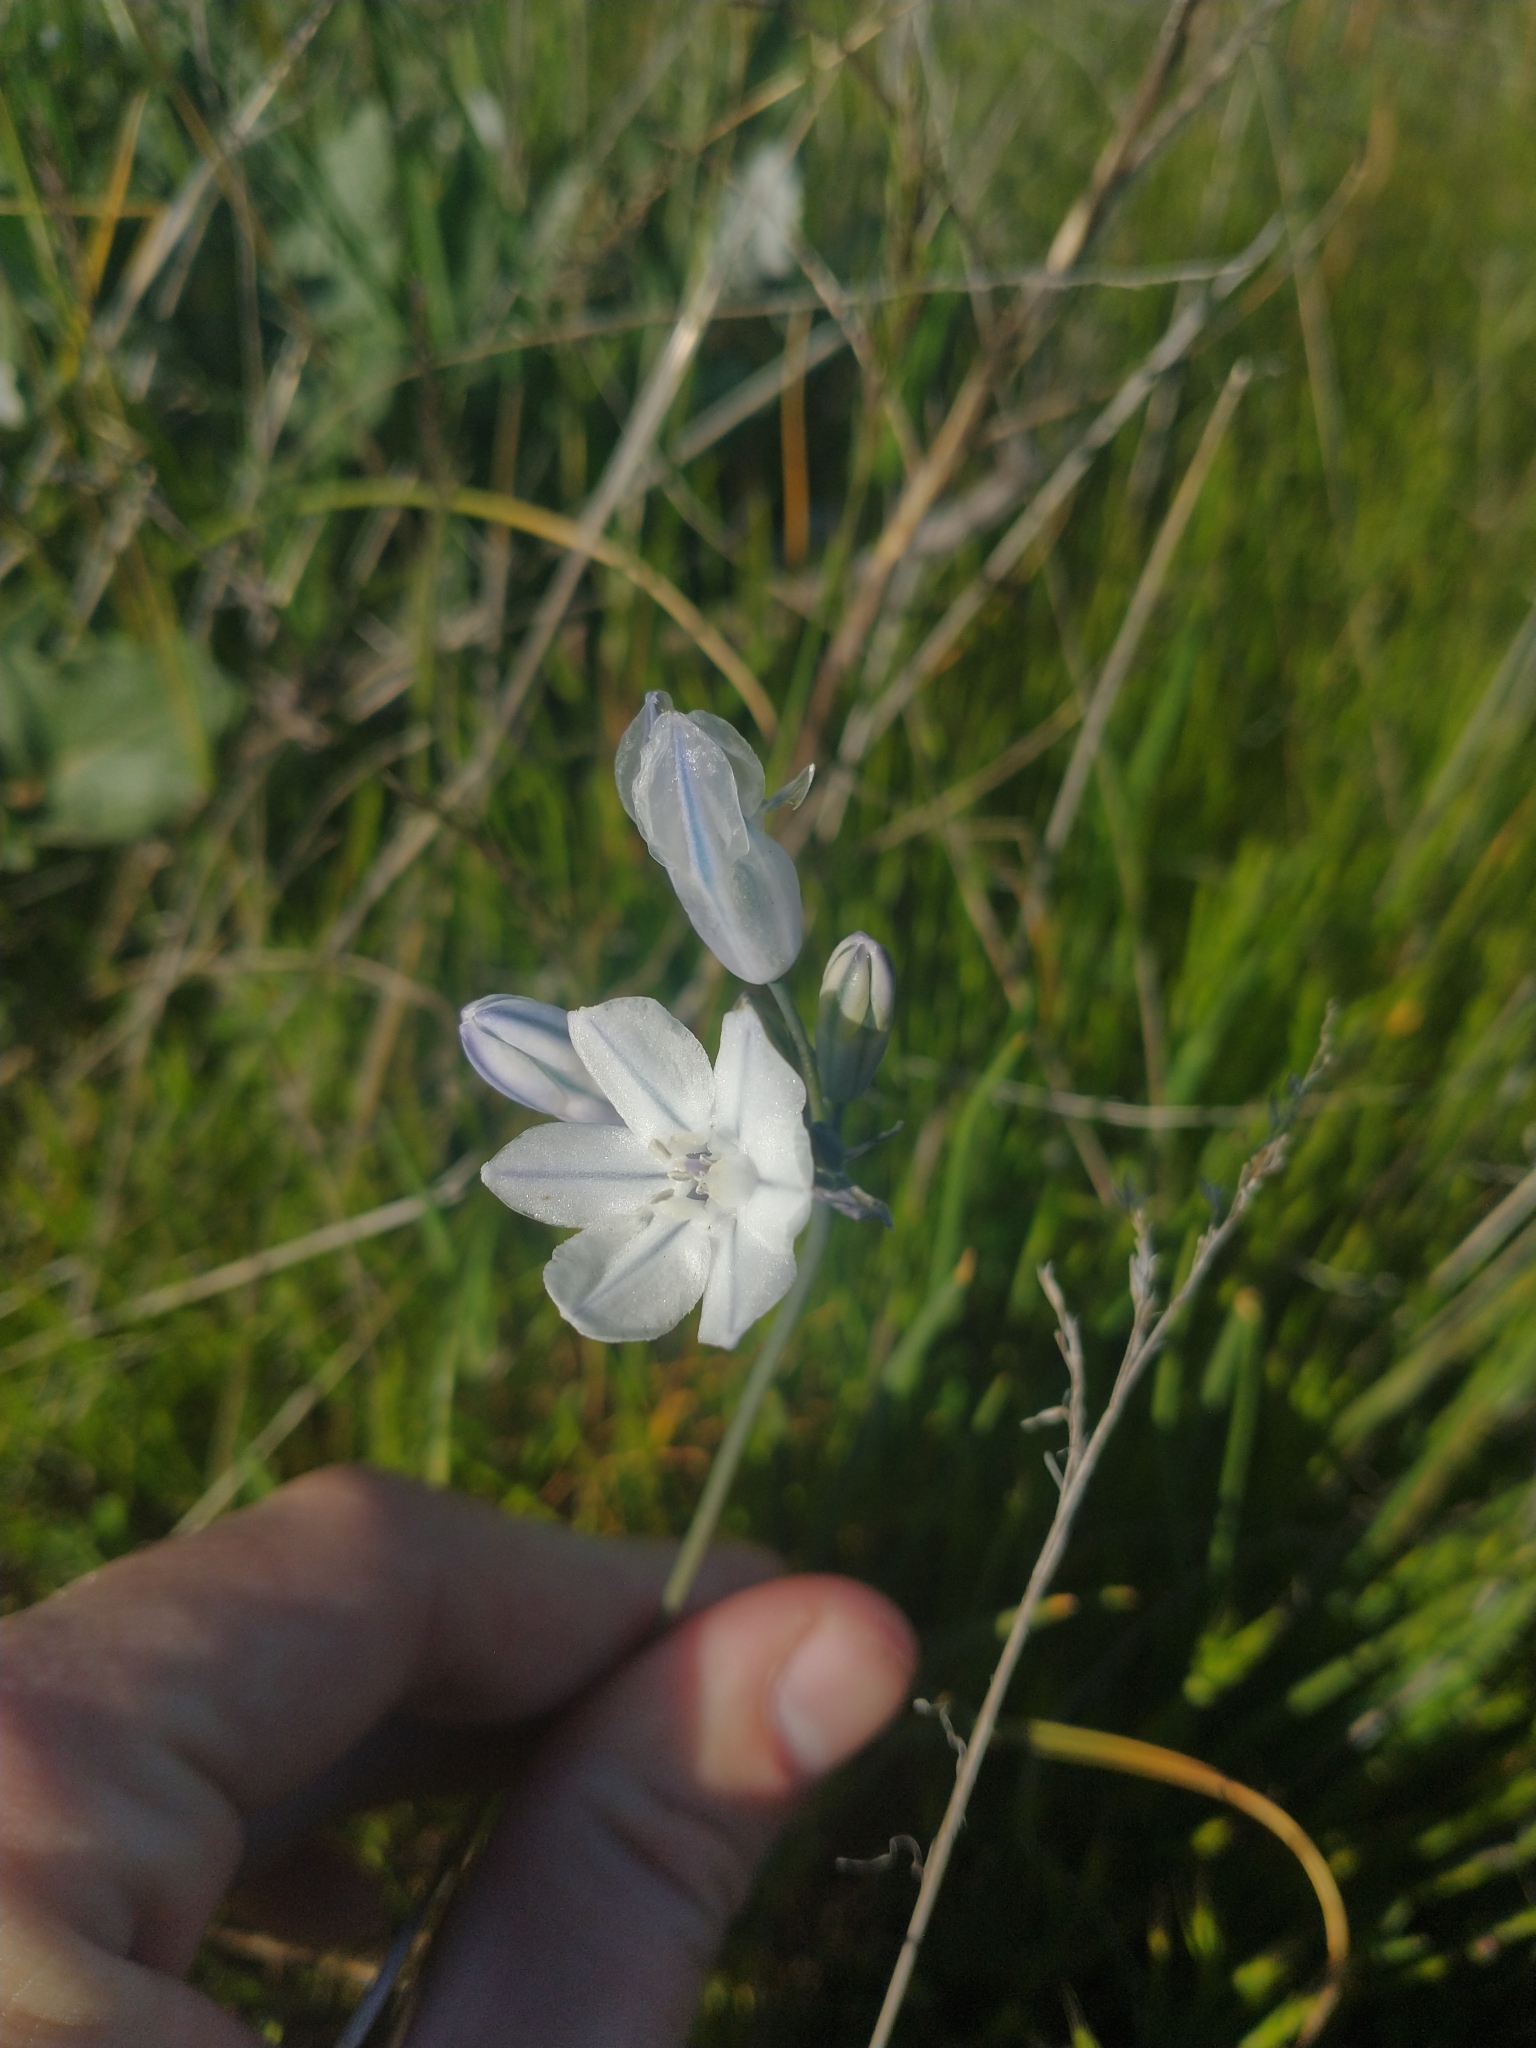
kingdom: Plantae
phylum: Tracheophyta
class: Liliopsida
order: Asparagales
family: Asparagaceae
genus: Triteleia
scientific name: Triteleia grandiflora
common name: Wild hyacinth
